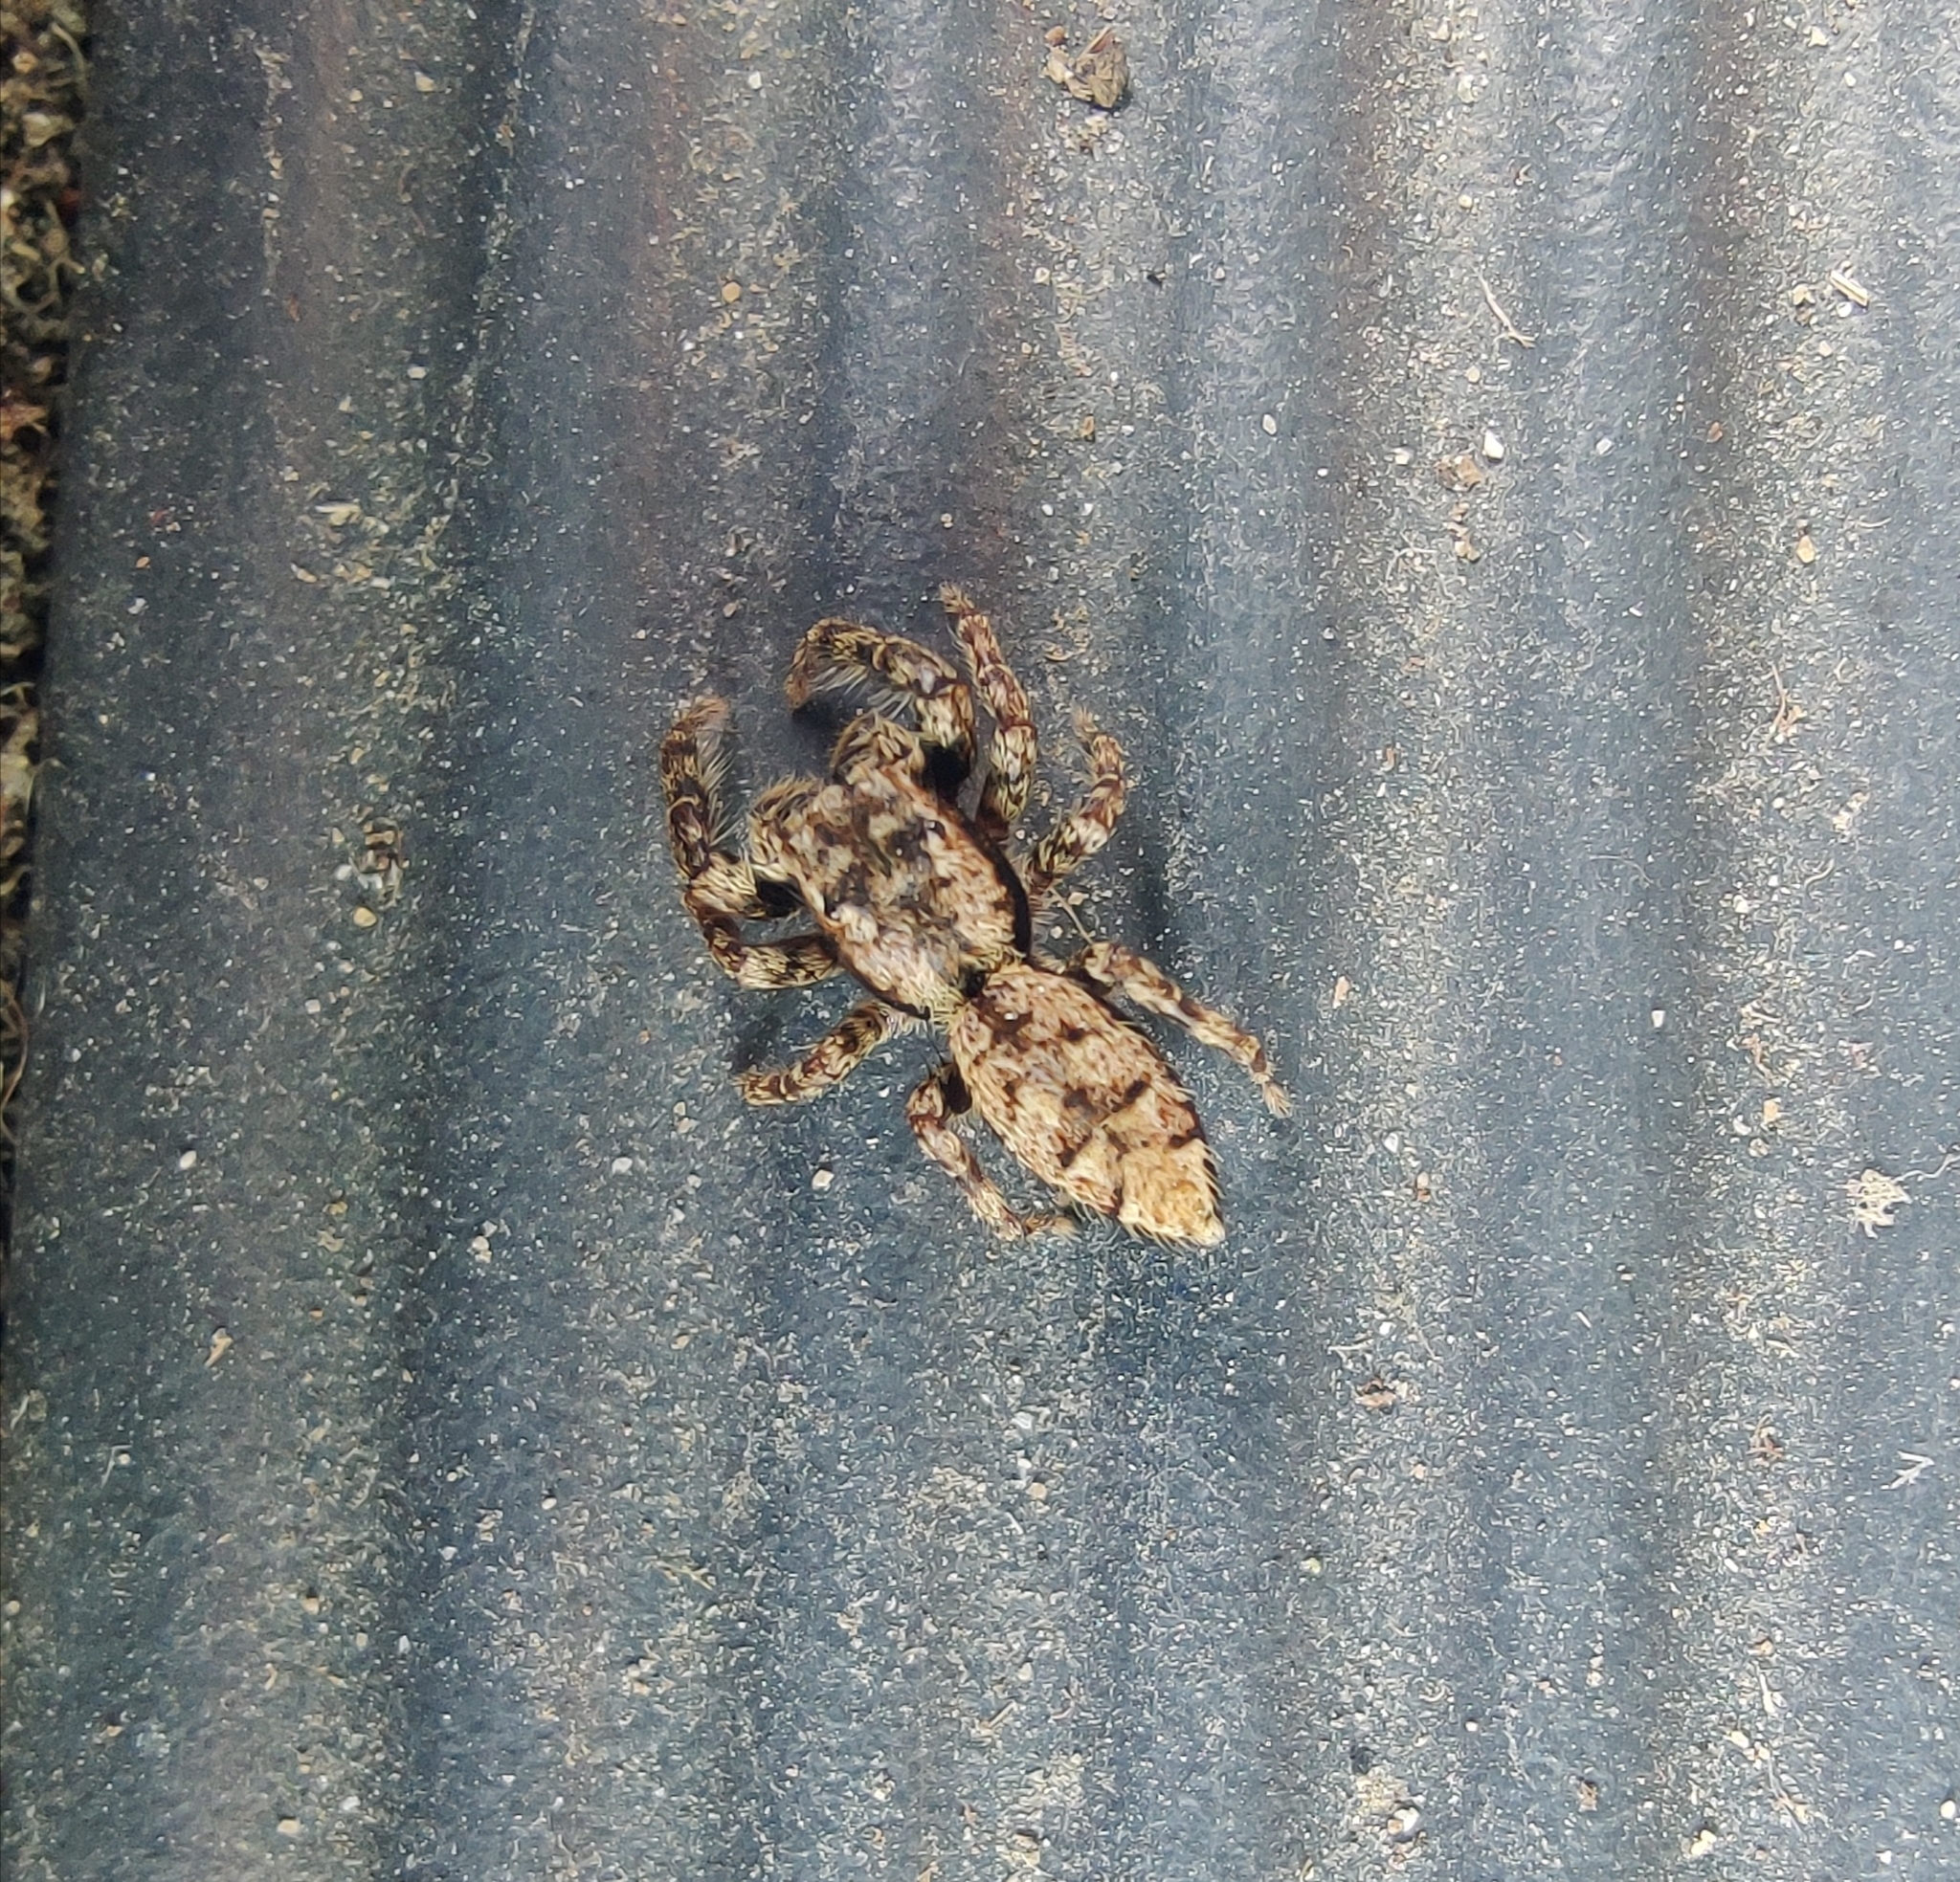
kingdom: Animalia
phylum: Arthropoda
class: Arachnida
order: Araneae
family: Salticidae
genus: Marpissa
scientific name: Marpissa muscosa
